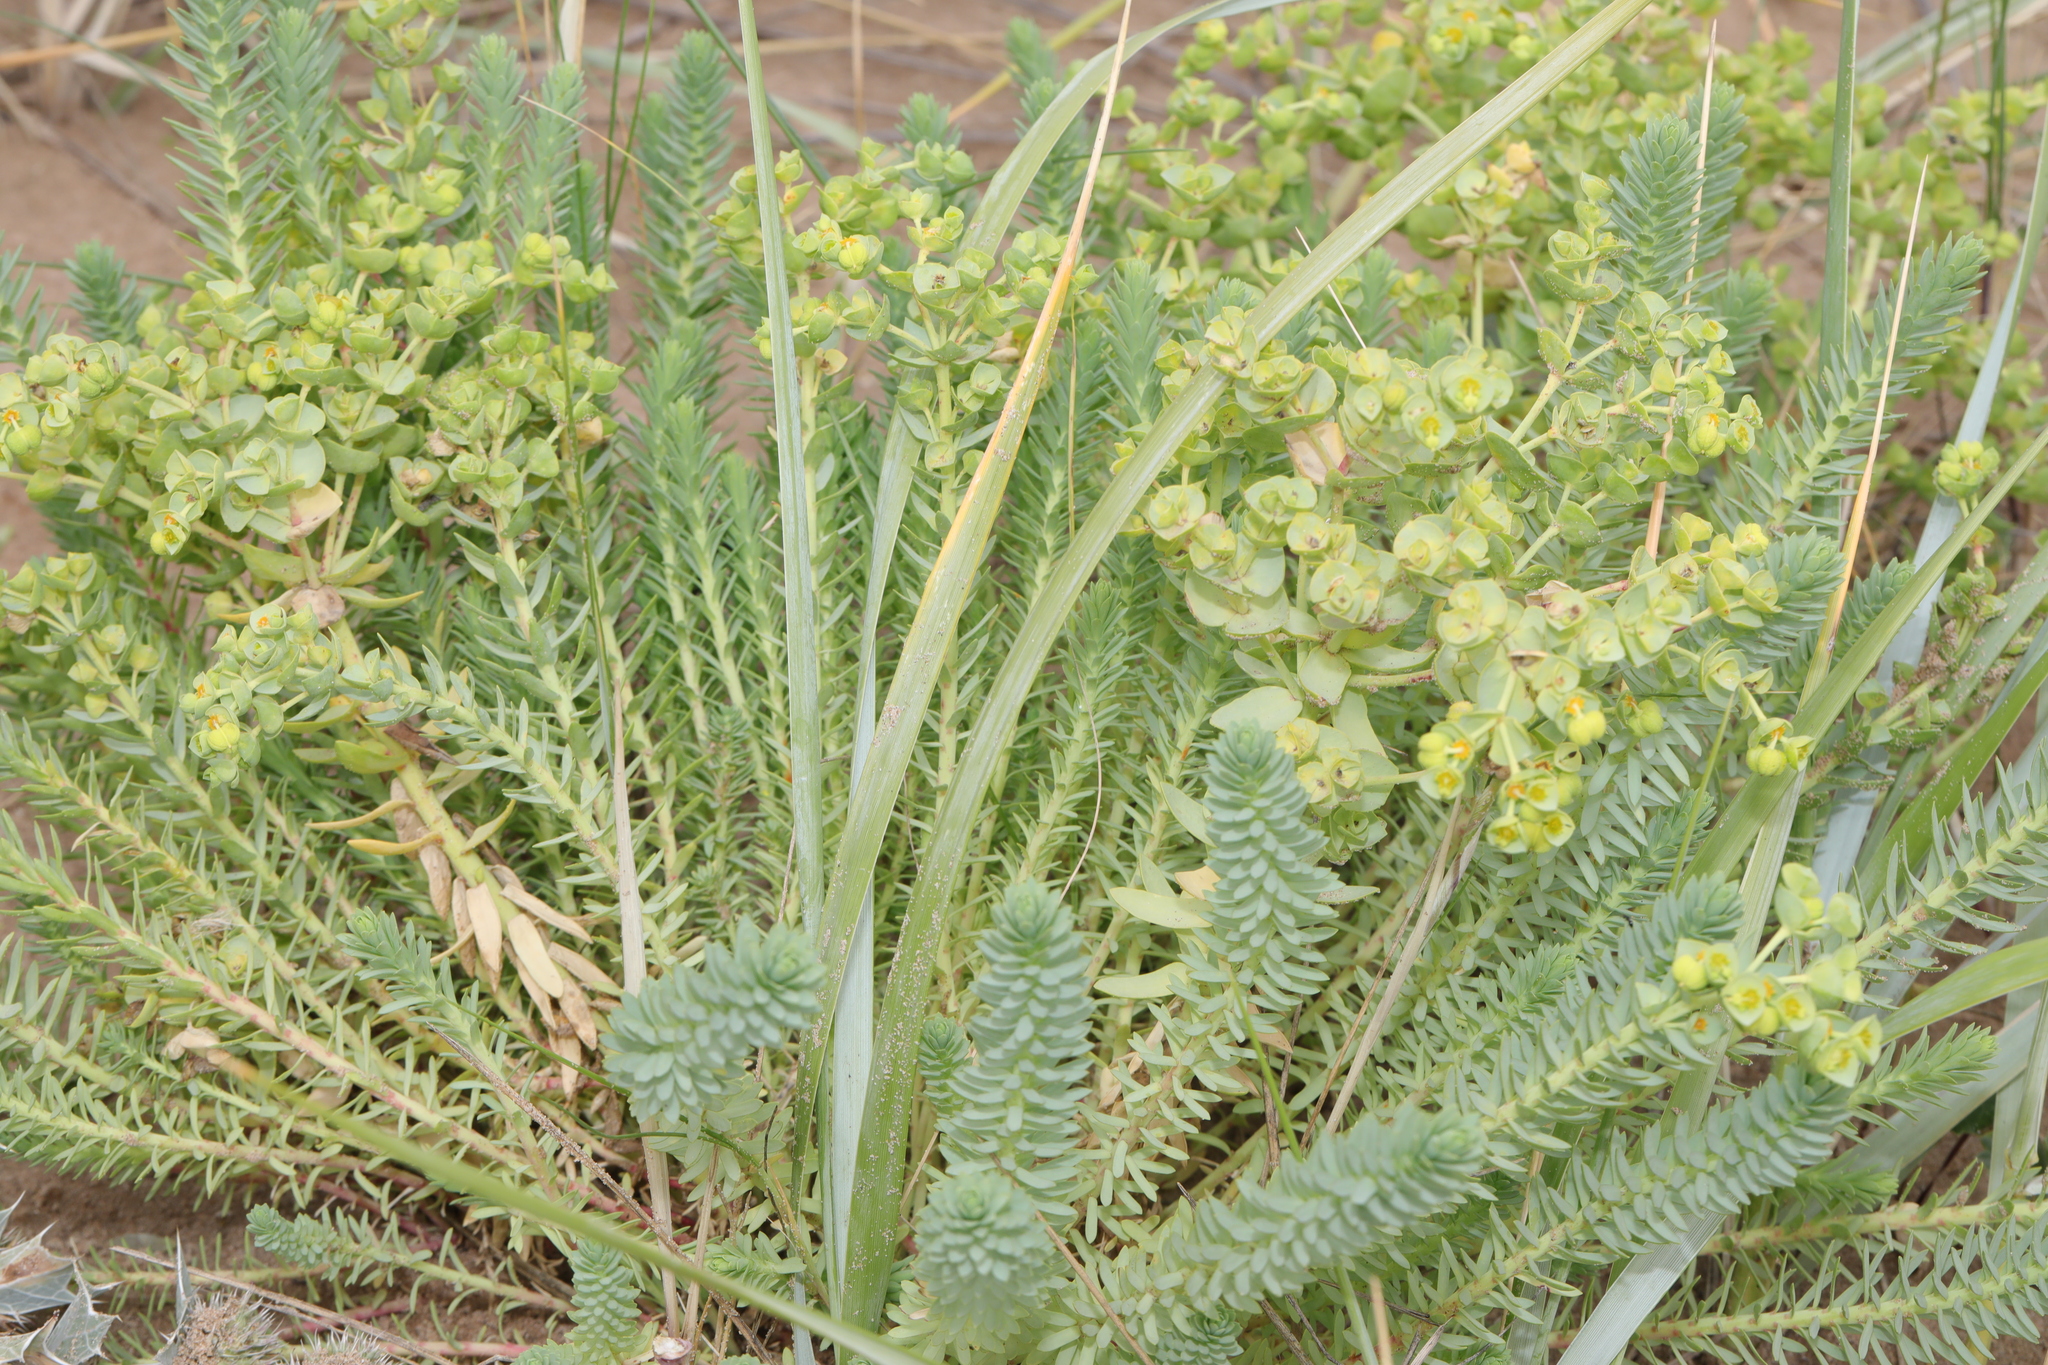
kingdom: Plantae
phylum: Tracheophyta
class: Magnoliopsida
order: Malpighiales
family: Euphorbiaceae
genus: Euphorbia
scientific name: Euphorbia paralias
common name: Sea spurge
